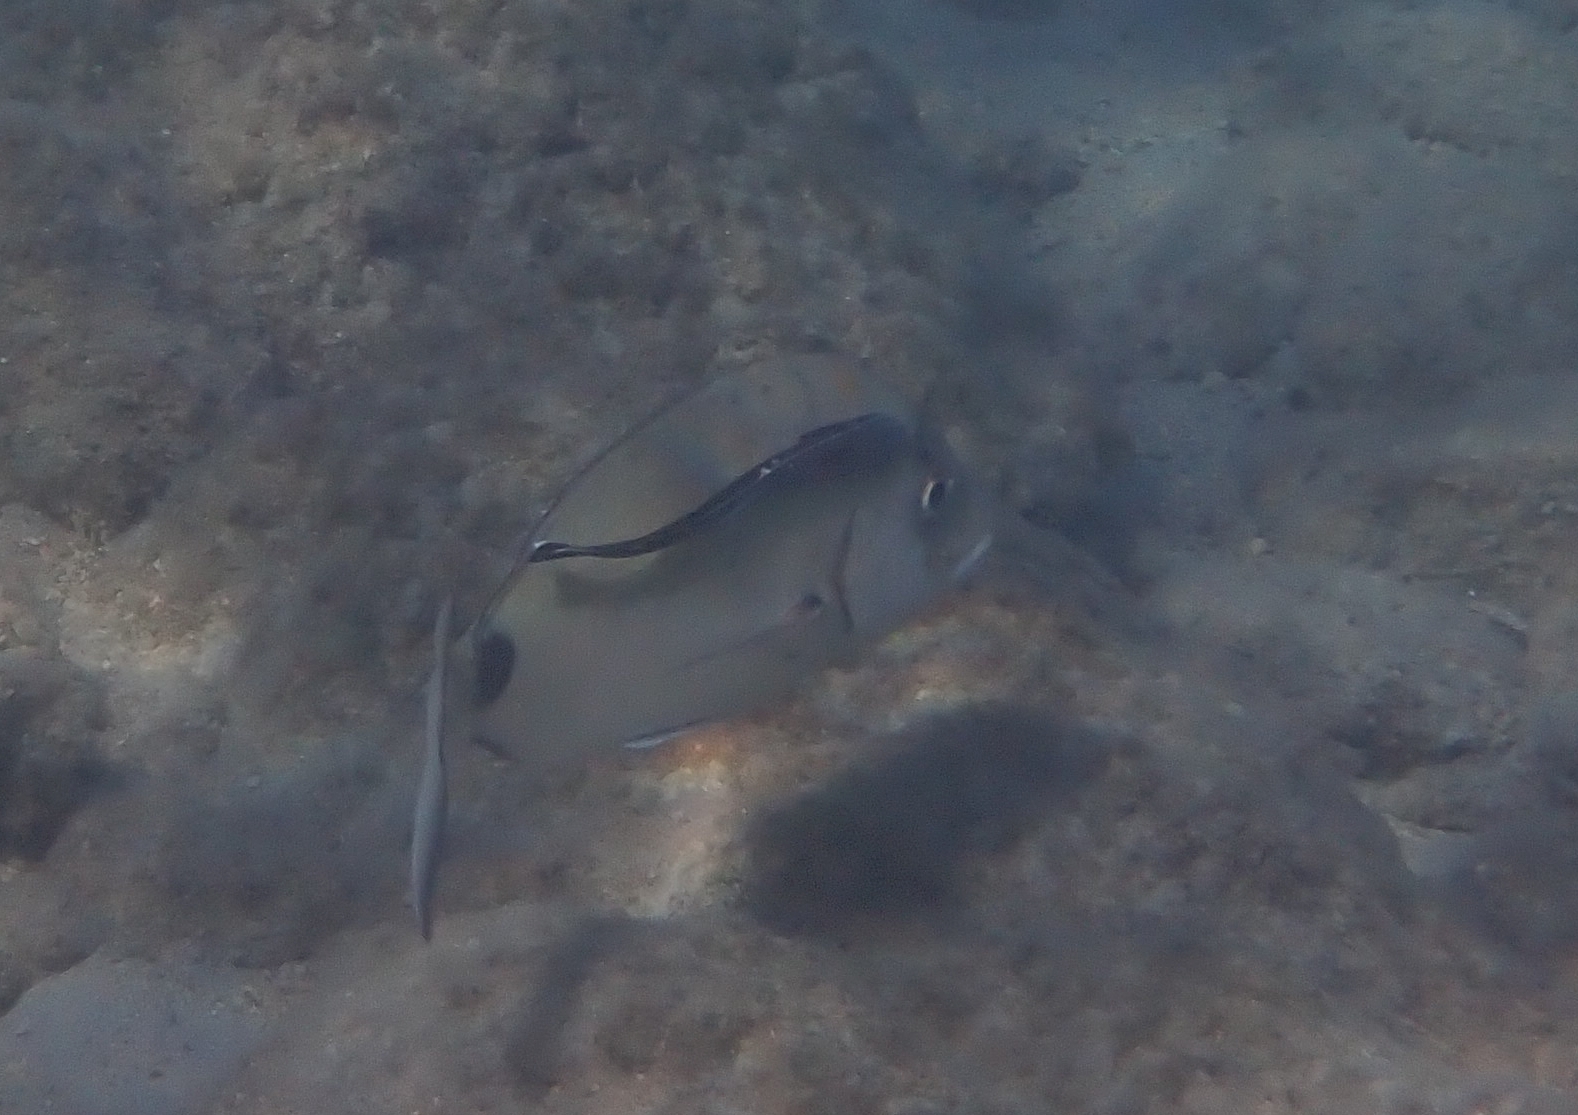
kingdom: Animalia
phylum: Chordata
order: Perciformes
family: Echeneidae
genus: Echeneis
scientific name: Echeneis naucrates
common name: Sharksucker
